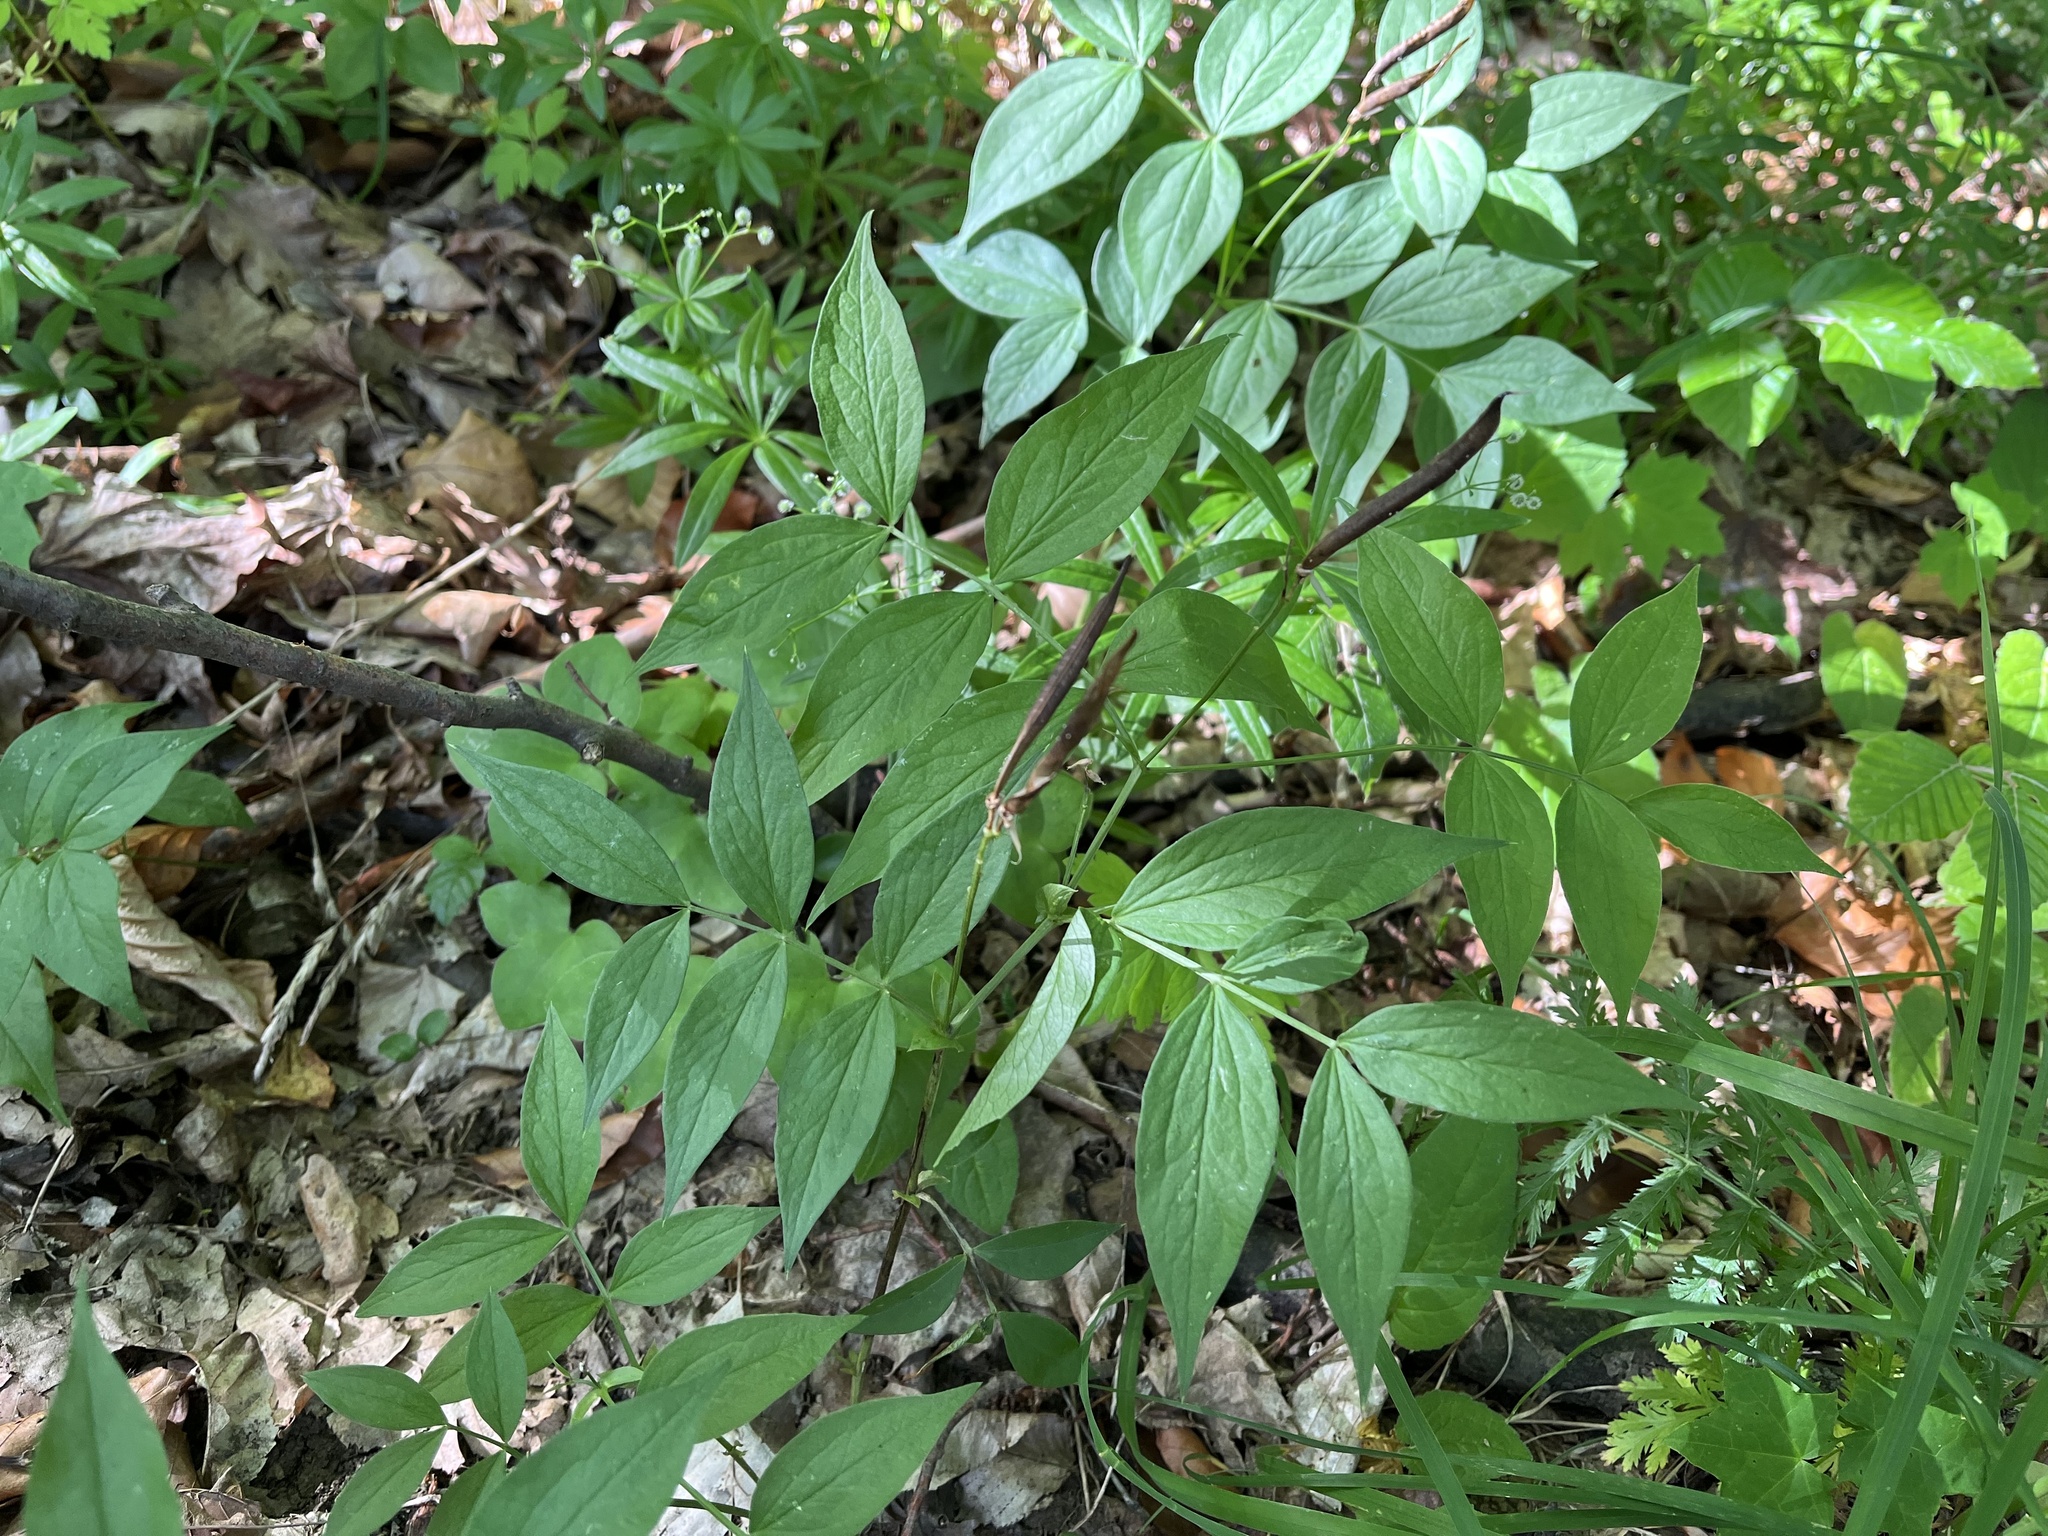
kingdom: Plantae
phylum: Tracheophyta
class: Magnoliopsida
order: Fabales
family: Fabaceae
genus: Lathyrus
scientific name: Lathyrus vernus
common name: Spring pea
